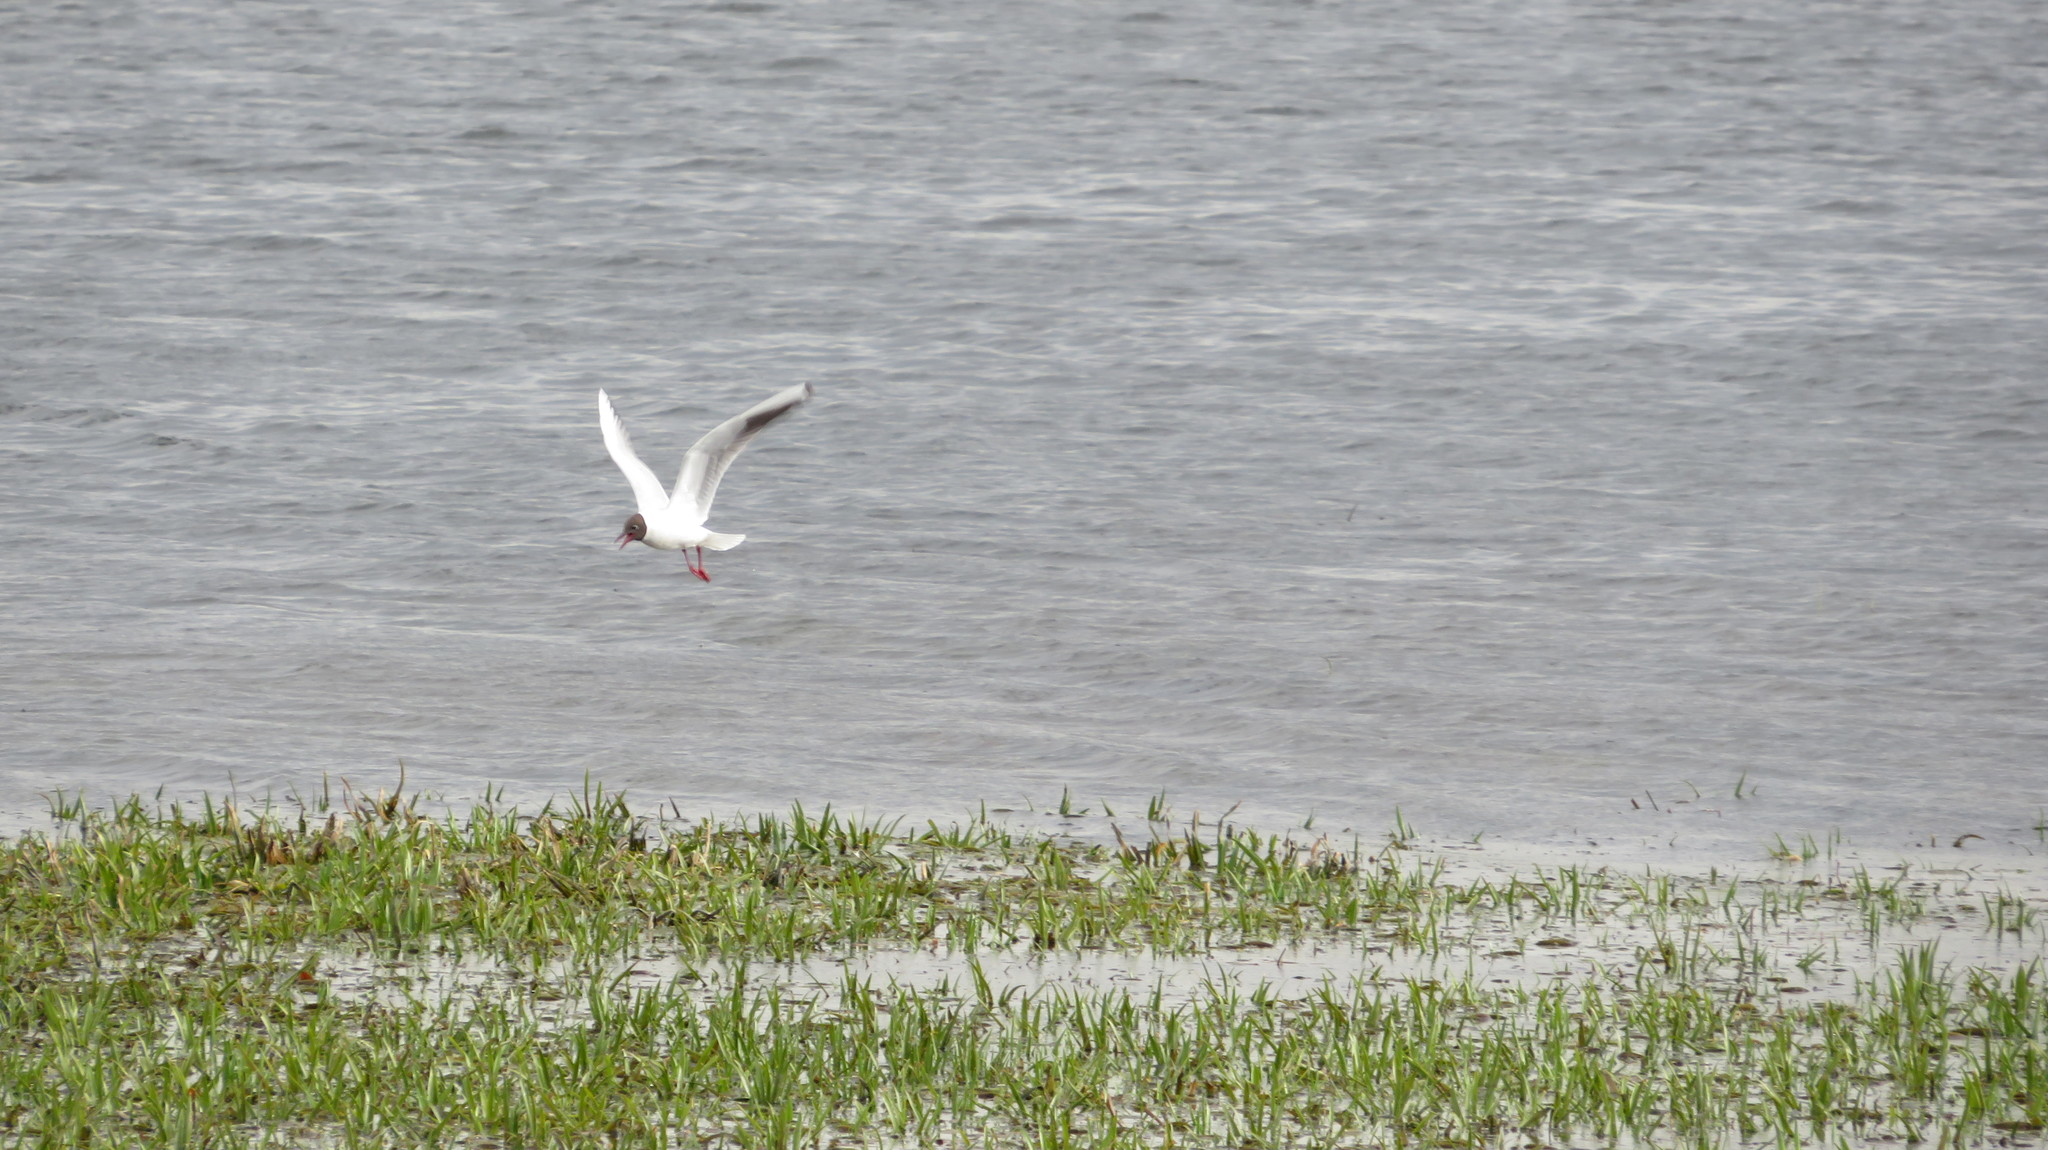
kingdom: Animalia
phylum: Chordata
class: Aves
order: Charadriiformes
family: Laridae
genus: Chroicocephalus
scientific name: Chroicocephalus ridibundus
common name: Black-headed gull
